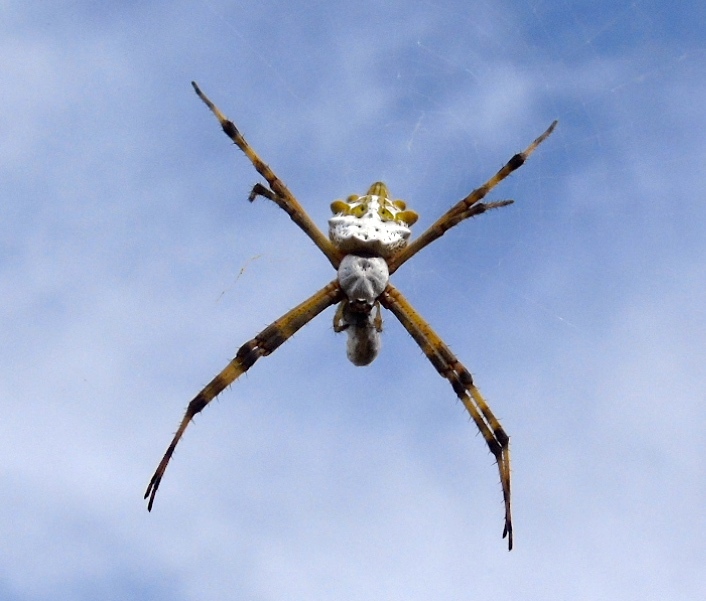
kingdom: Animalia
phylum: Arthropoda
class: Arachnida
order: Araneae
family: Araneidae
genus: Argiope
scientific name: Argiope argentata
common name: Orb weavers
